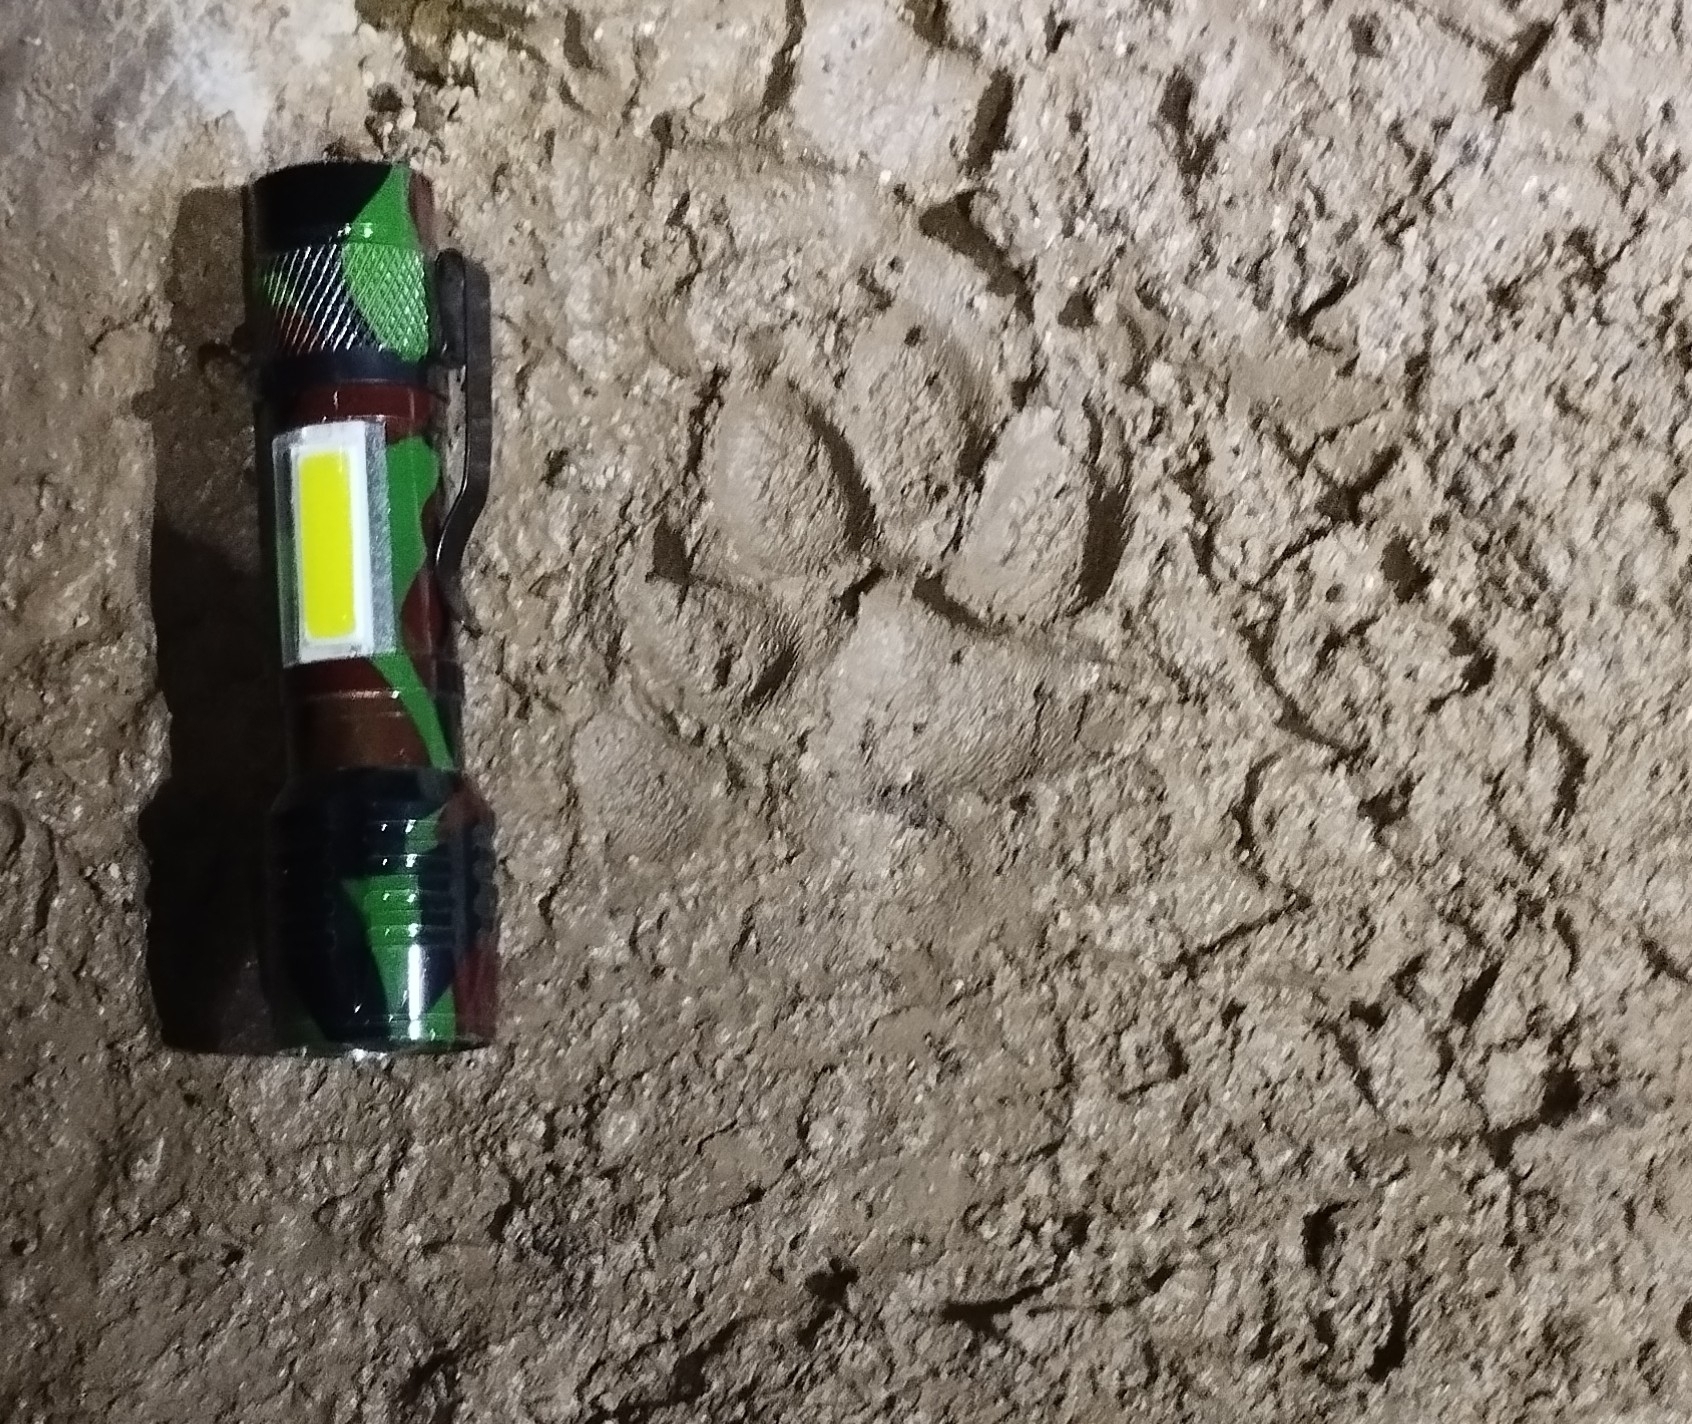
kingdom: Animalia
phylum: Chordata
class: Mammalia
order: Carnivora
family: Canidae
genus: Canis
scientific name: Canis lupus
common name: Gray wolf
